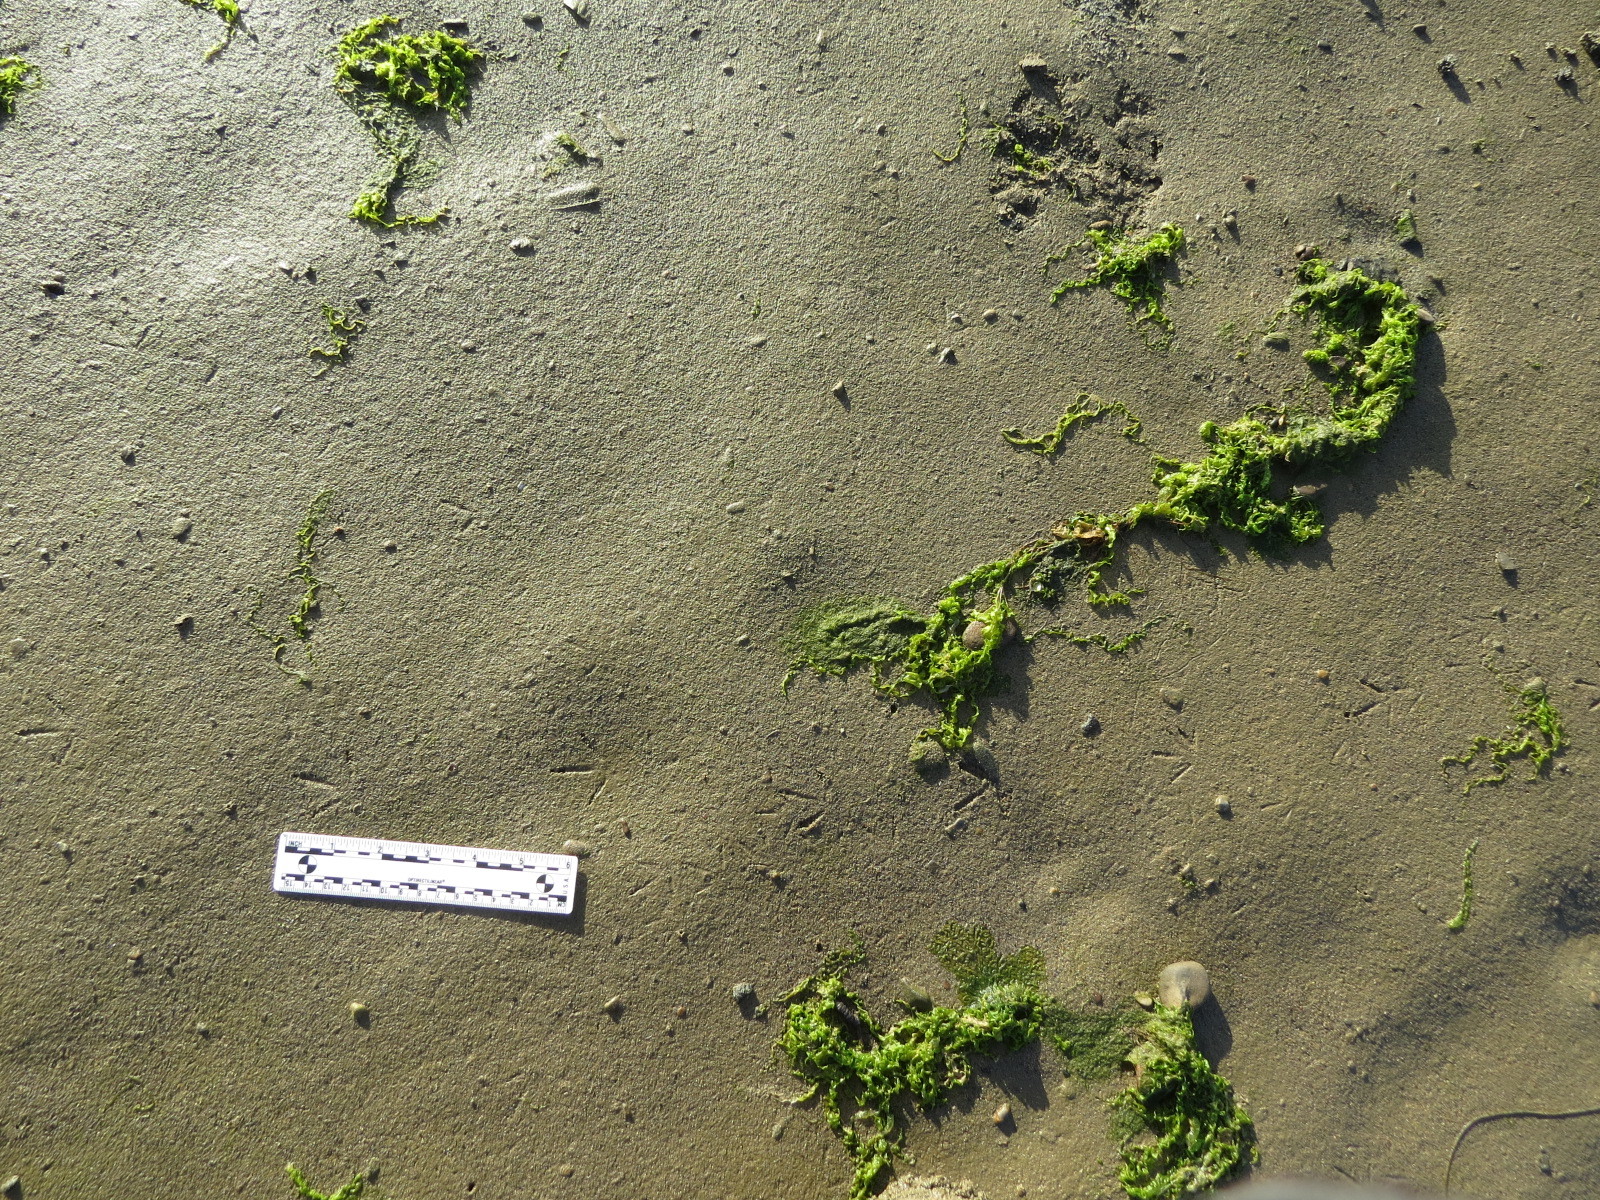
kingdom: Animalia
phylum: Chordata
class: Aves
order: Charadriiformes
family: Charadriidae
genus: Pluvialis
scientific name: Pluvialis fulva
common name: Pacific golden plover
